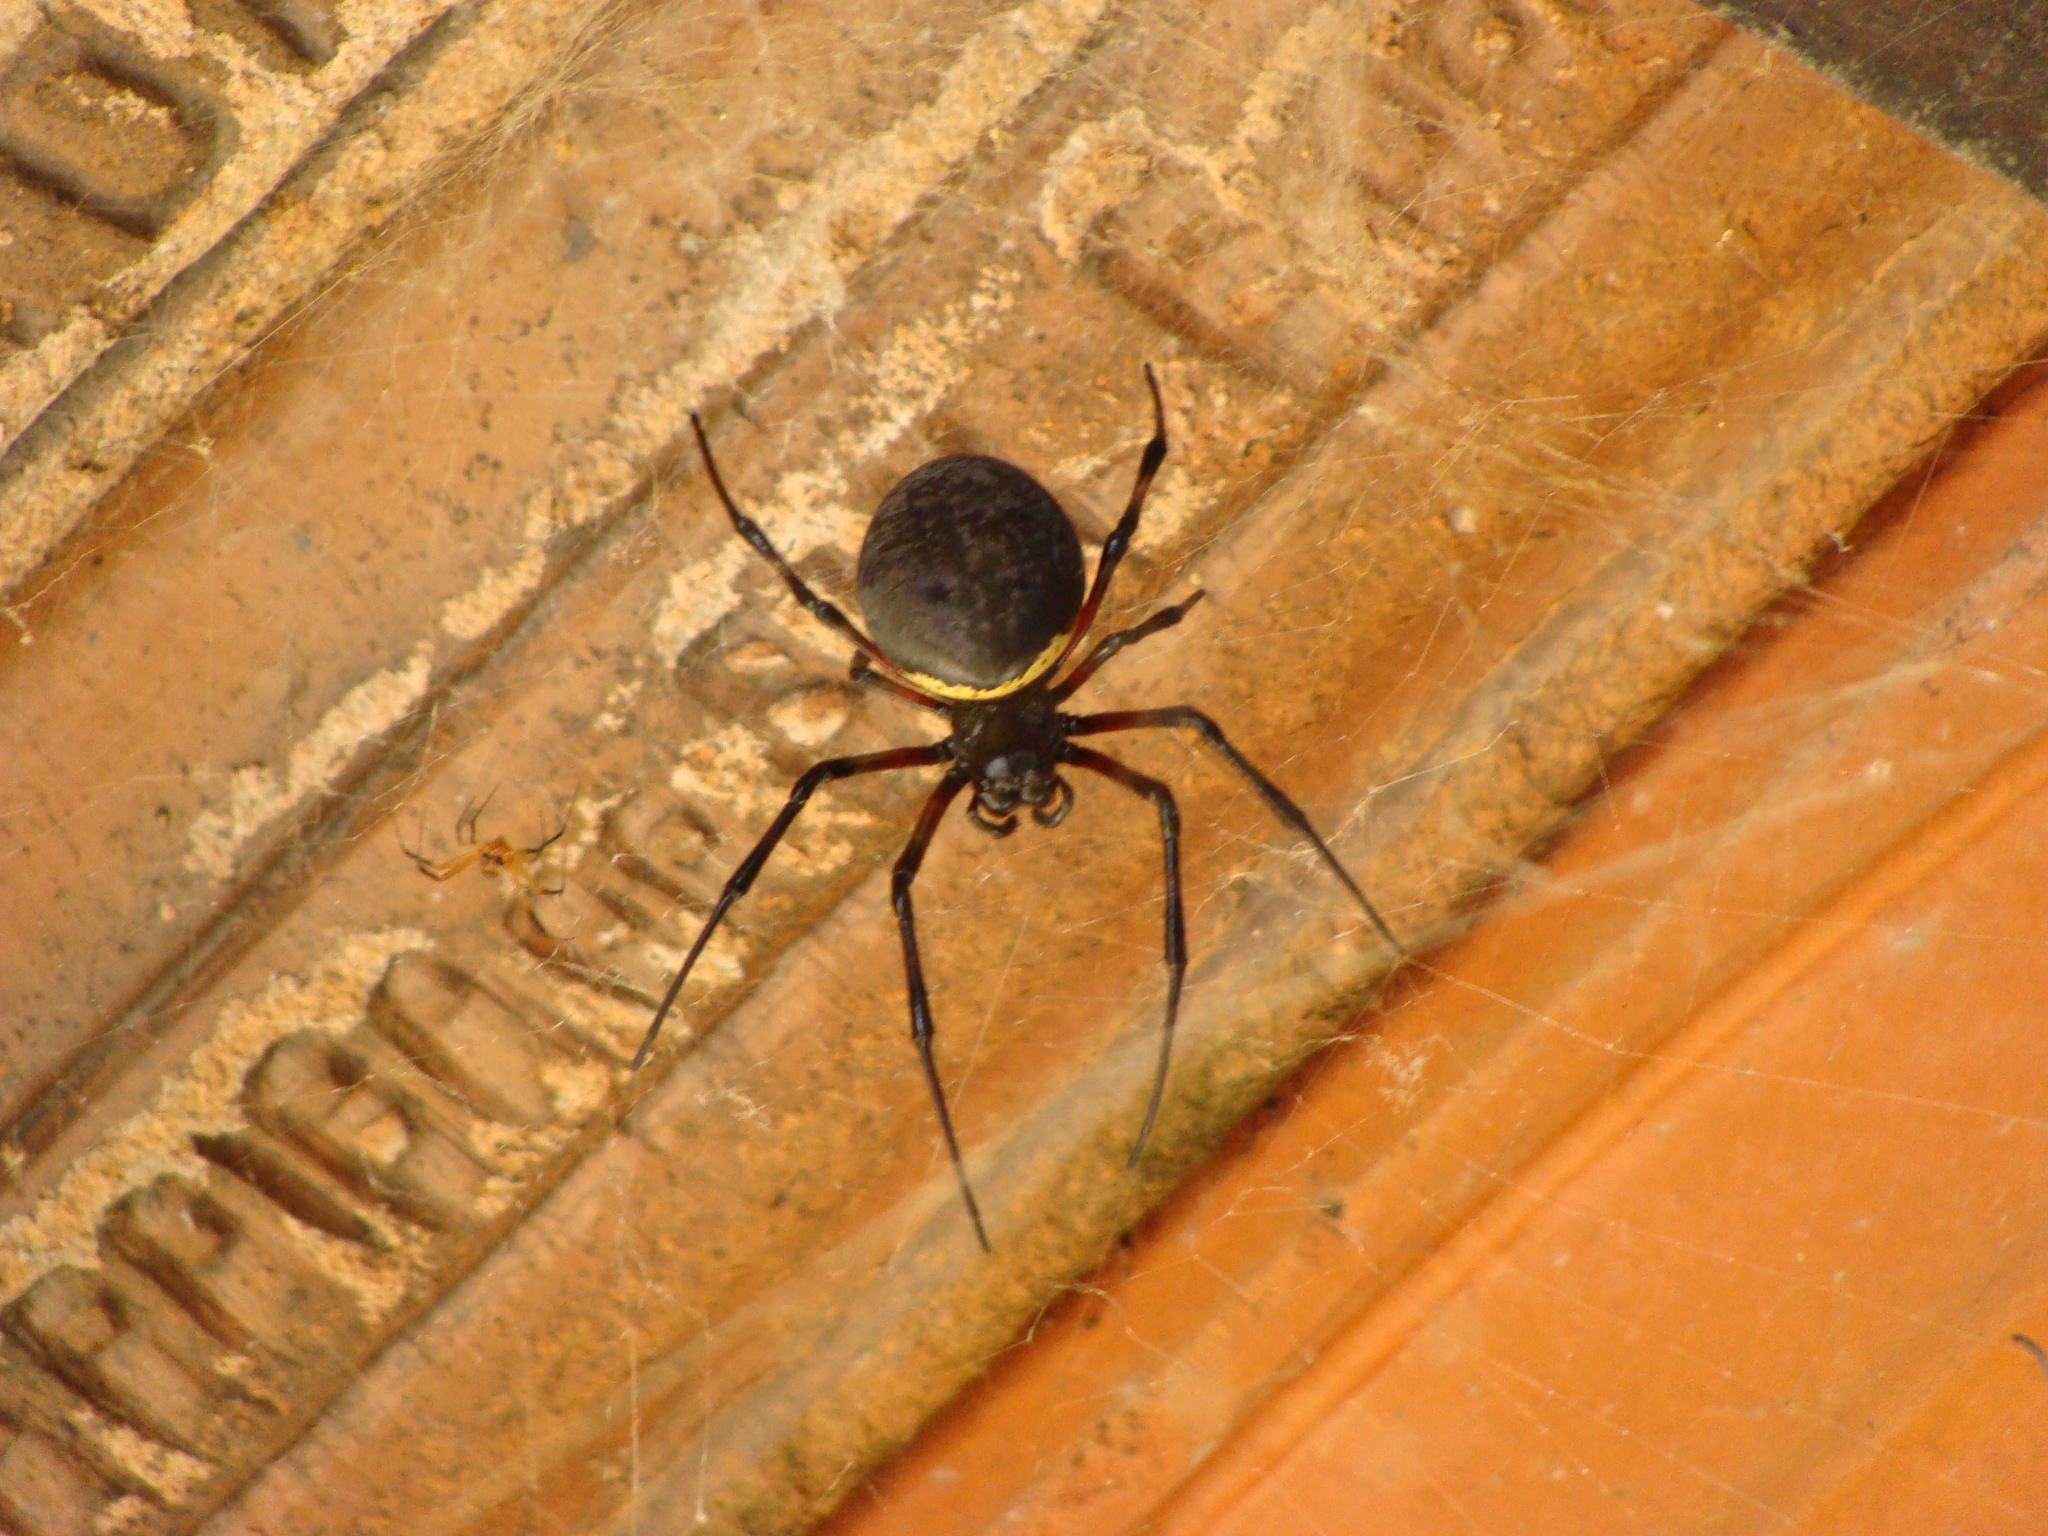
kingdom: Animalia
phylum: Arthropoda
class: Arachnida
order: Araneae
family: Araneidae
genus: Nephilingis
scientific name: Nephilingis cruentata
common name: African hermit spider
